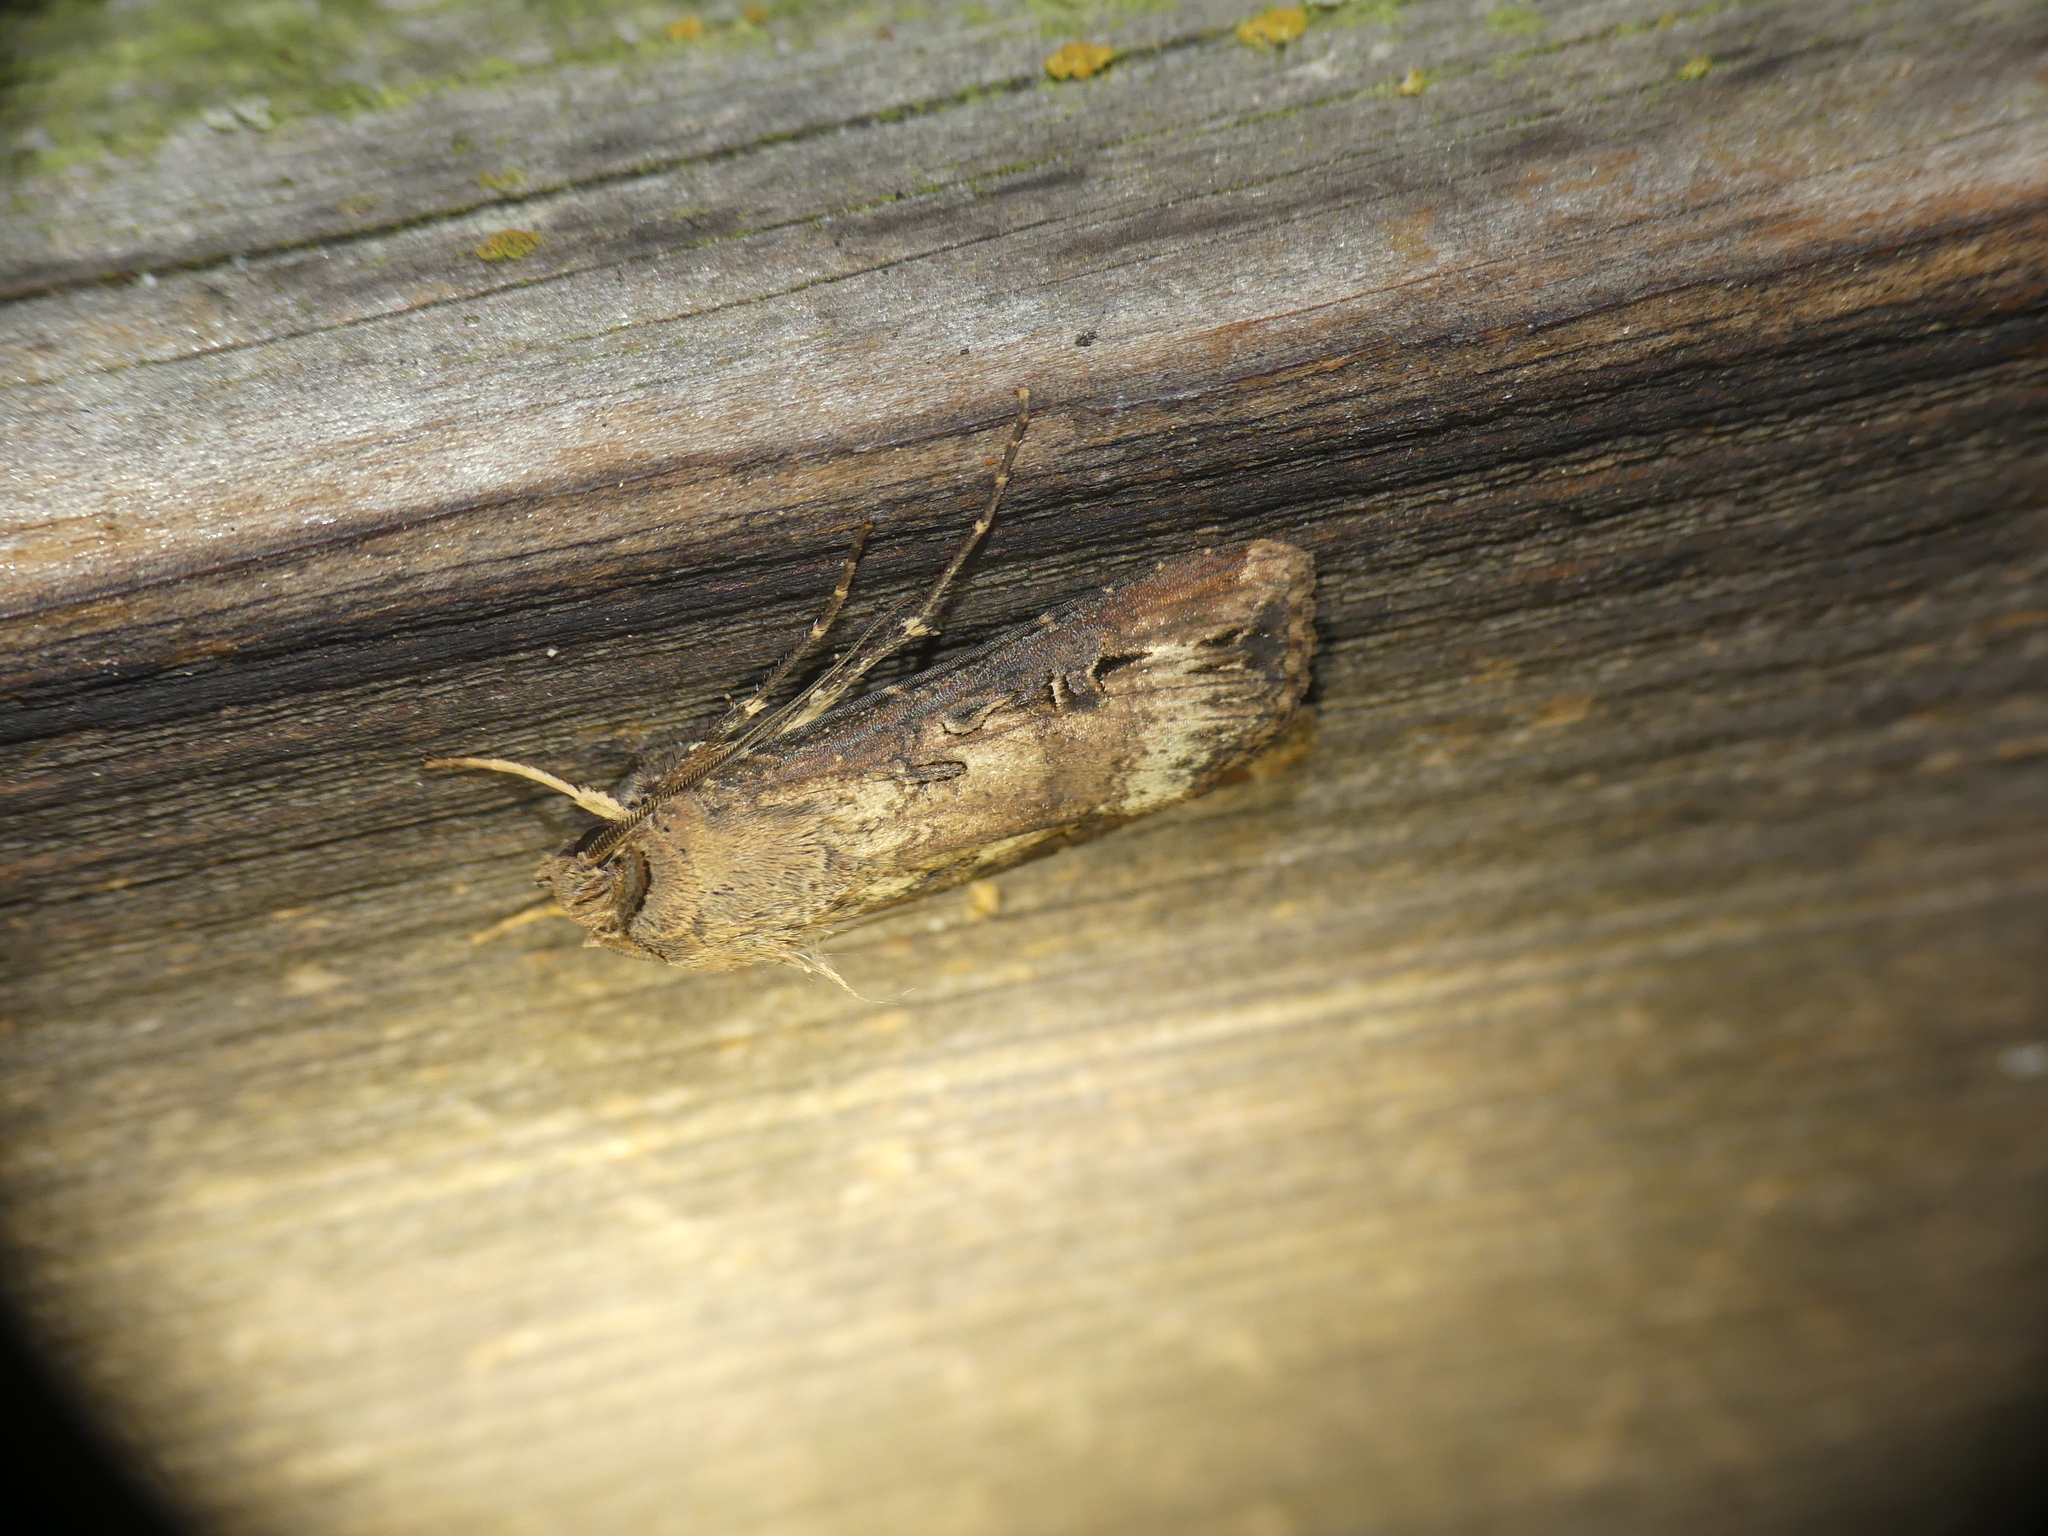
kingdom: Animalia
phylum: Arthropoda
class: Insecta
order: Lepidoptera
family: Noctuidae
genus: Agrotis
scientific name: Agrotis ipsilon
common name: Dark sword-grass
